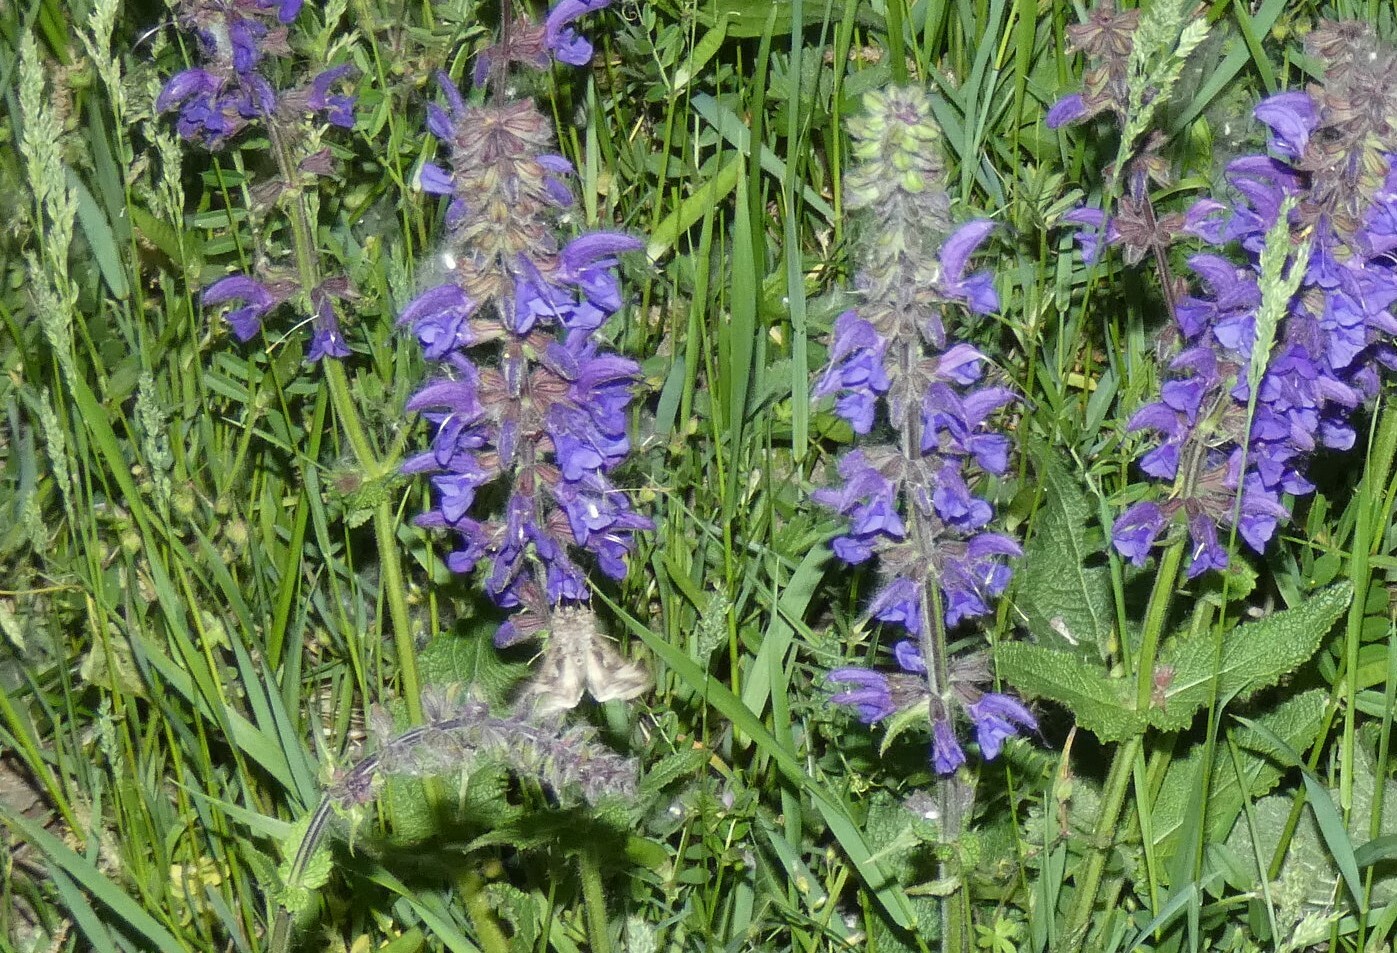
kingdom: Animalia
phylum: Arthropoda
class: Insecta
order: Lepidoptera
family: Noctuidae
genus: Autographa
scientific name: Autographa gamma
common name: Silver y
